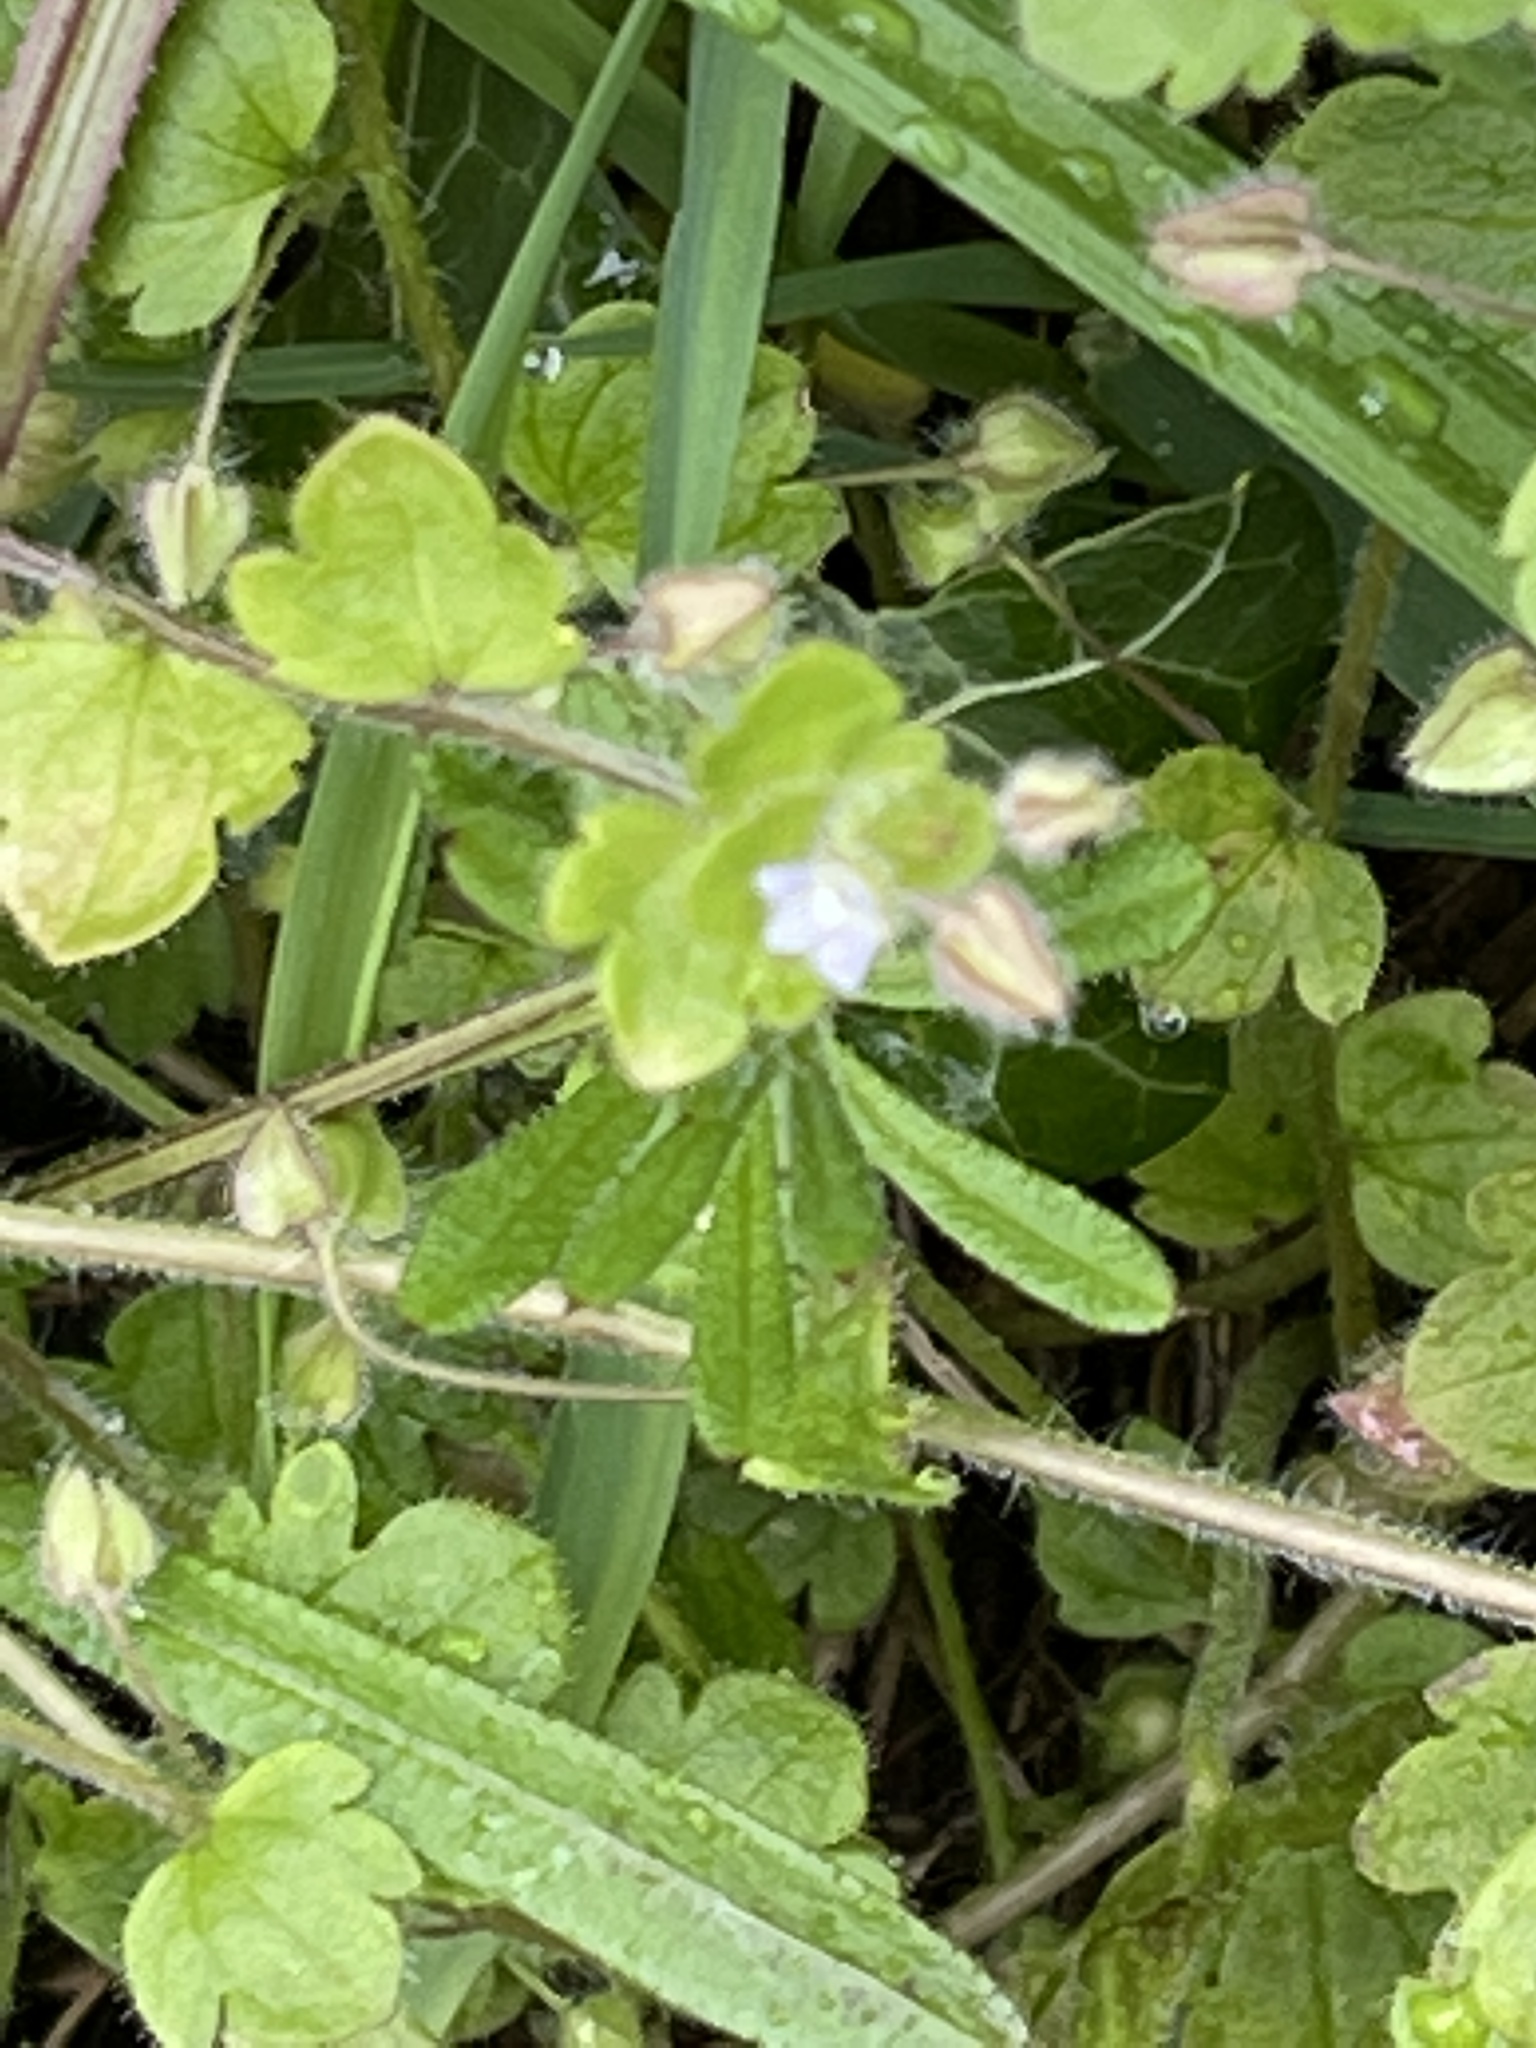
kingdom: Plantae
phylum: Tracheophyta
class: Magnoliopsida
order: Lamiales
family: Plantaginaceae
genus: Veronica
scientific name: Veronica sublobata
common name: False ivy-leaved speedwell
